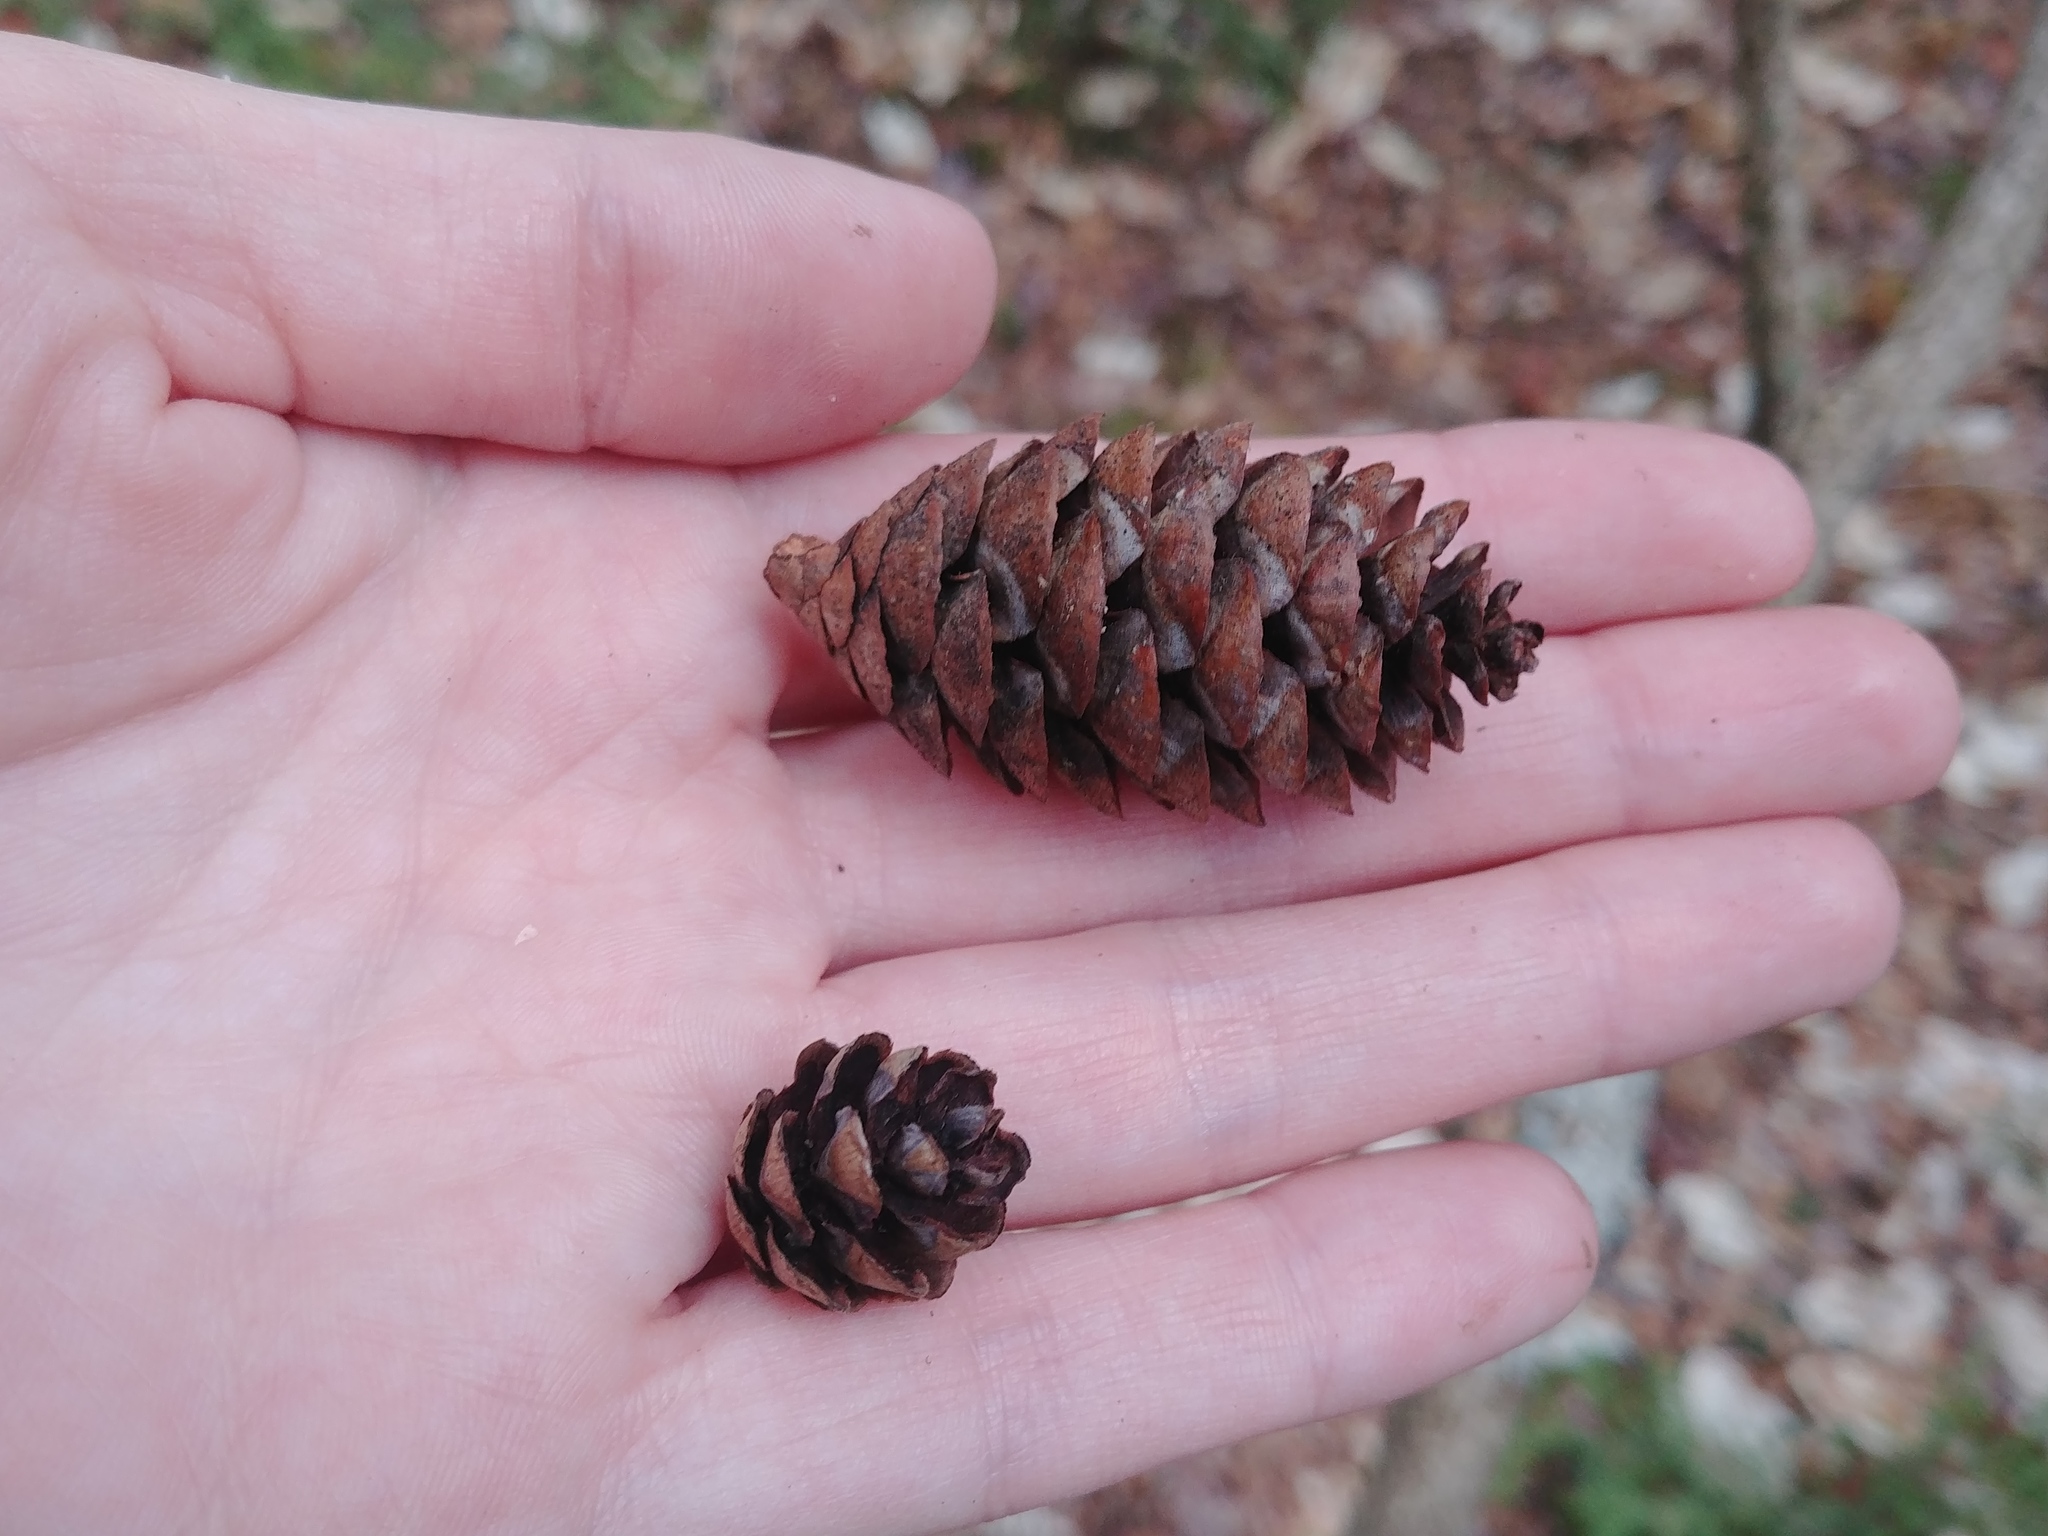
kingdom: Plantae
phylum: Tracheophyta
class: Pinopsida
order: Pinales
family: Pinaceae
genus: Picea
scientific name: Picea rubens
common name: Red spruce
